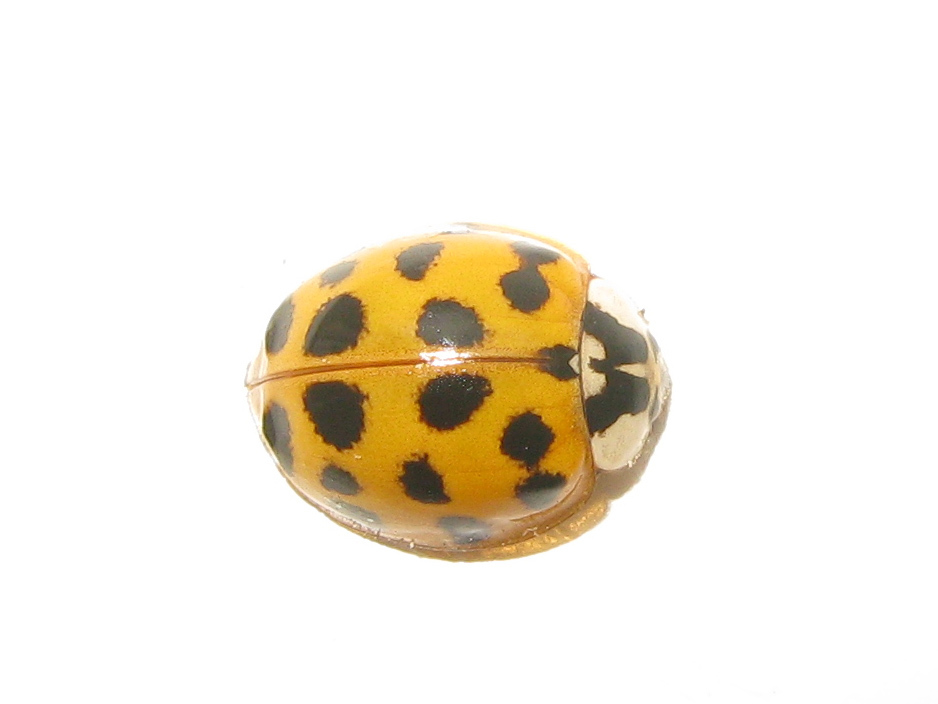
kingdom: Animalia
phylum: Arthropoda
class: Insecta
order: Coleoptera
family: Coccinellidae
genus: Harmonia
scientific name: Harmonia axyridis
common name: Harlequin ladybird
